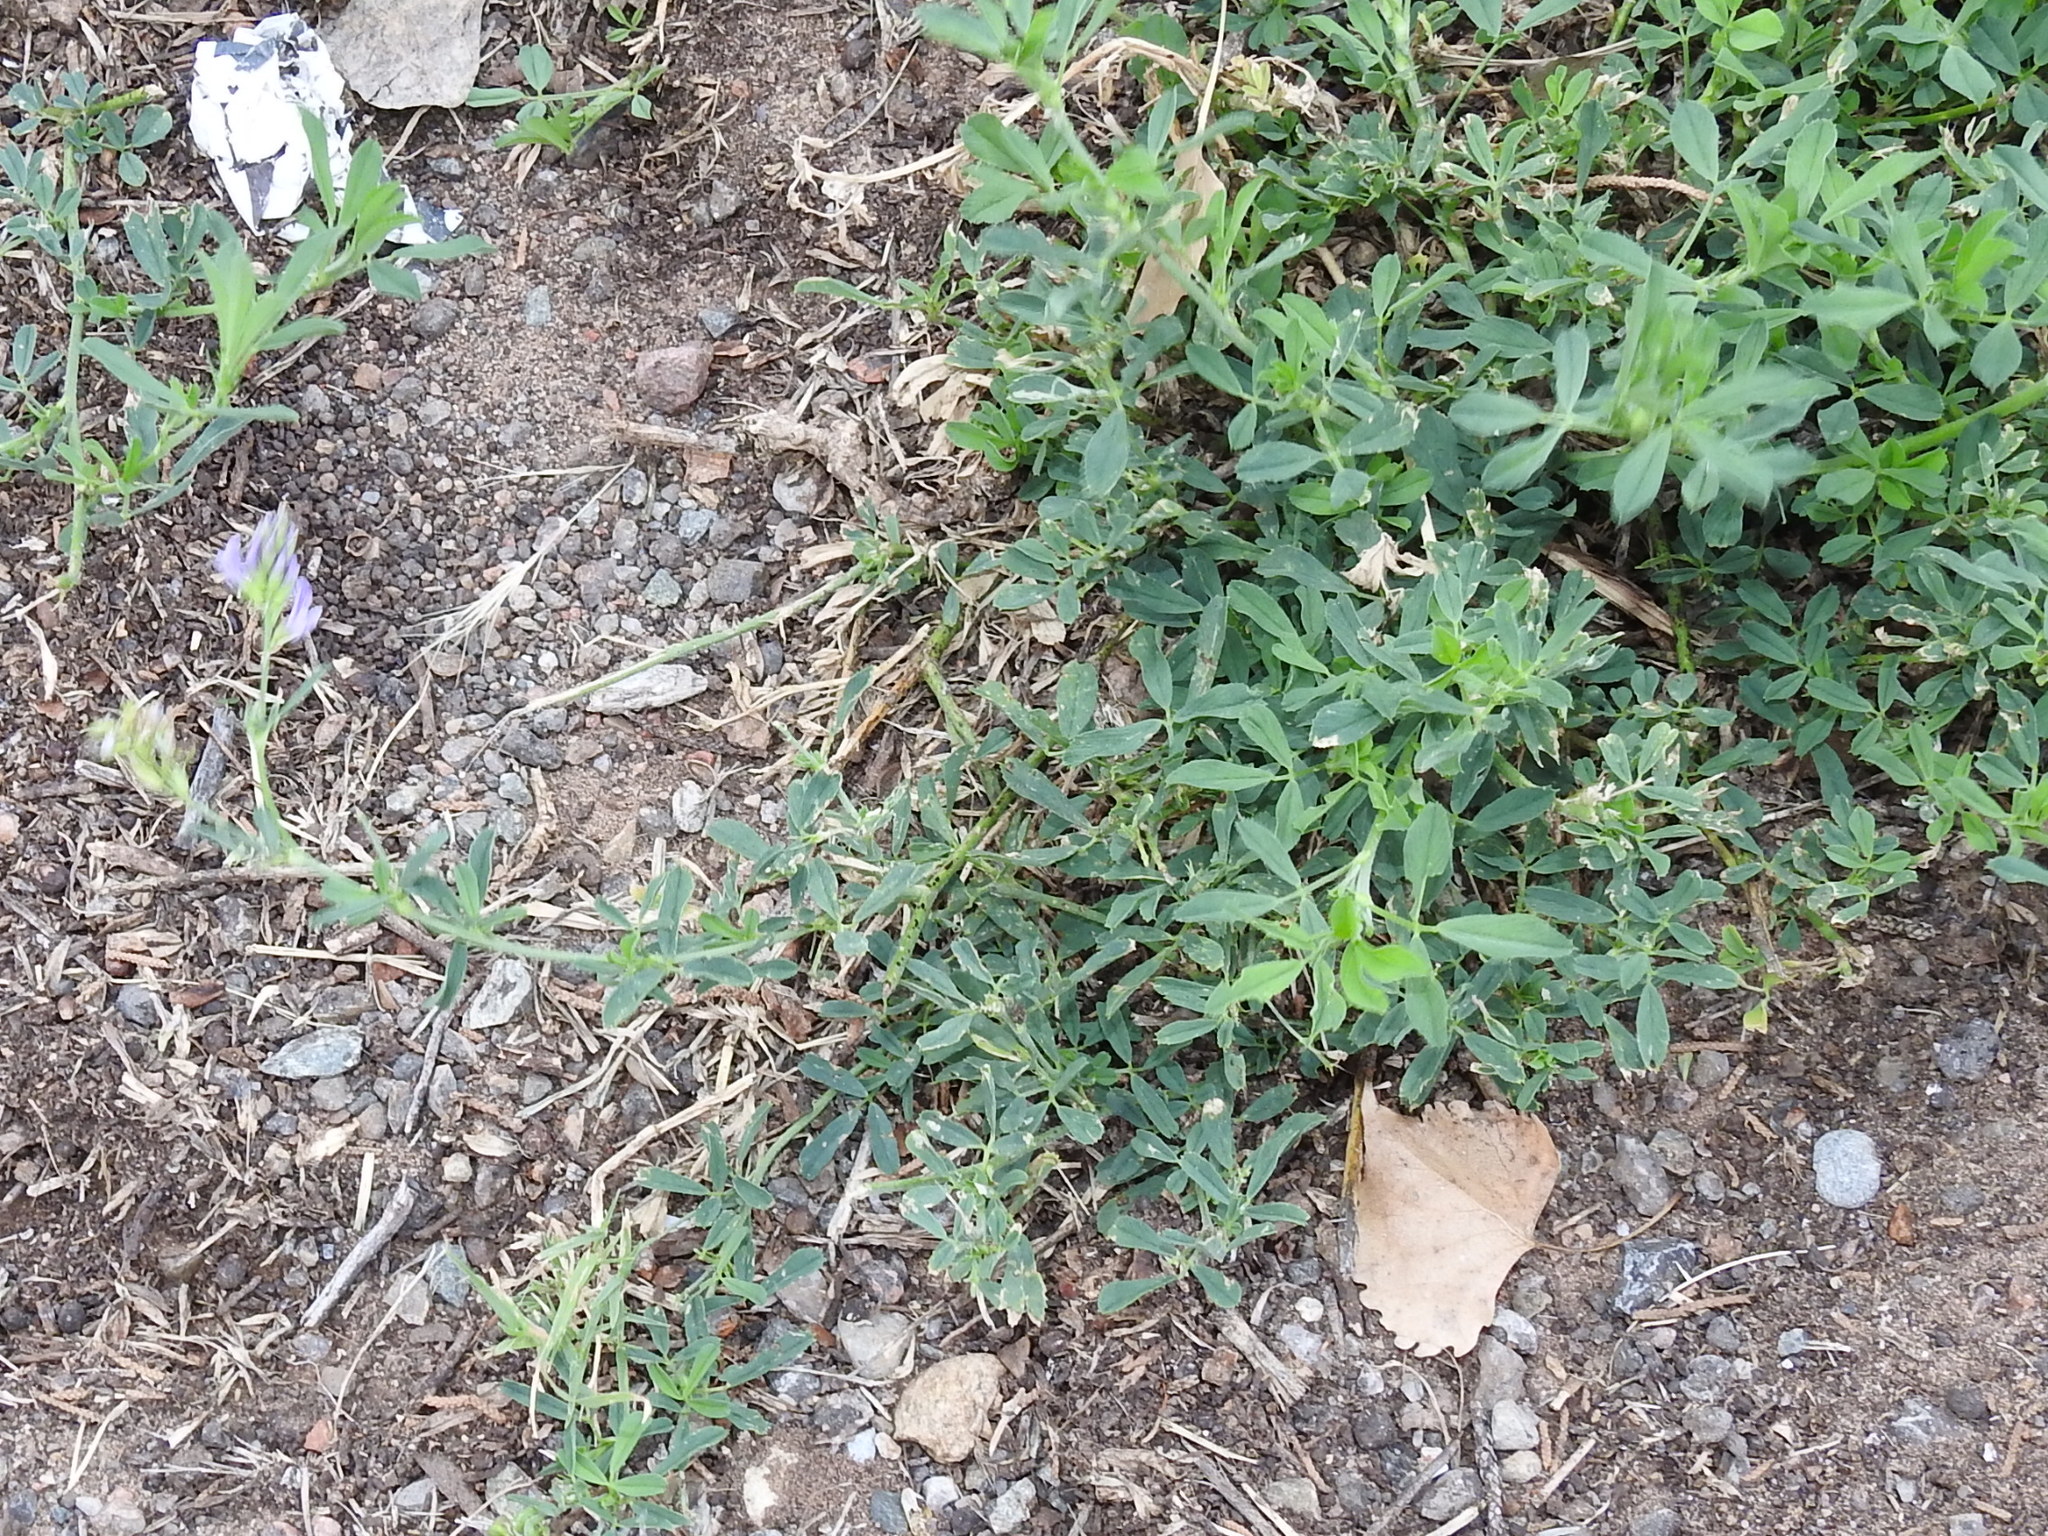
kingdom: Plantae
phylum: Tracheophyta
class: Magnoliopsida
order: Fabales
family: Fabaceae
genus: Medicago
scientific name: Medicago sativa
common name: Alfalfa
